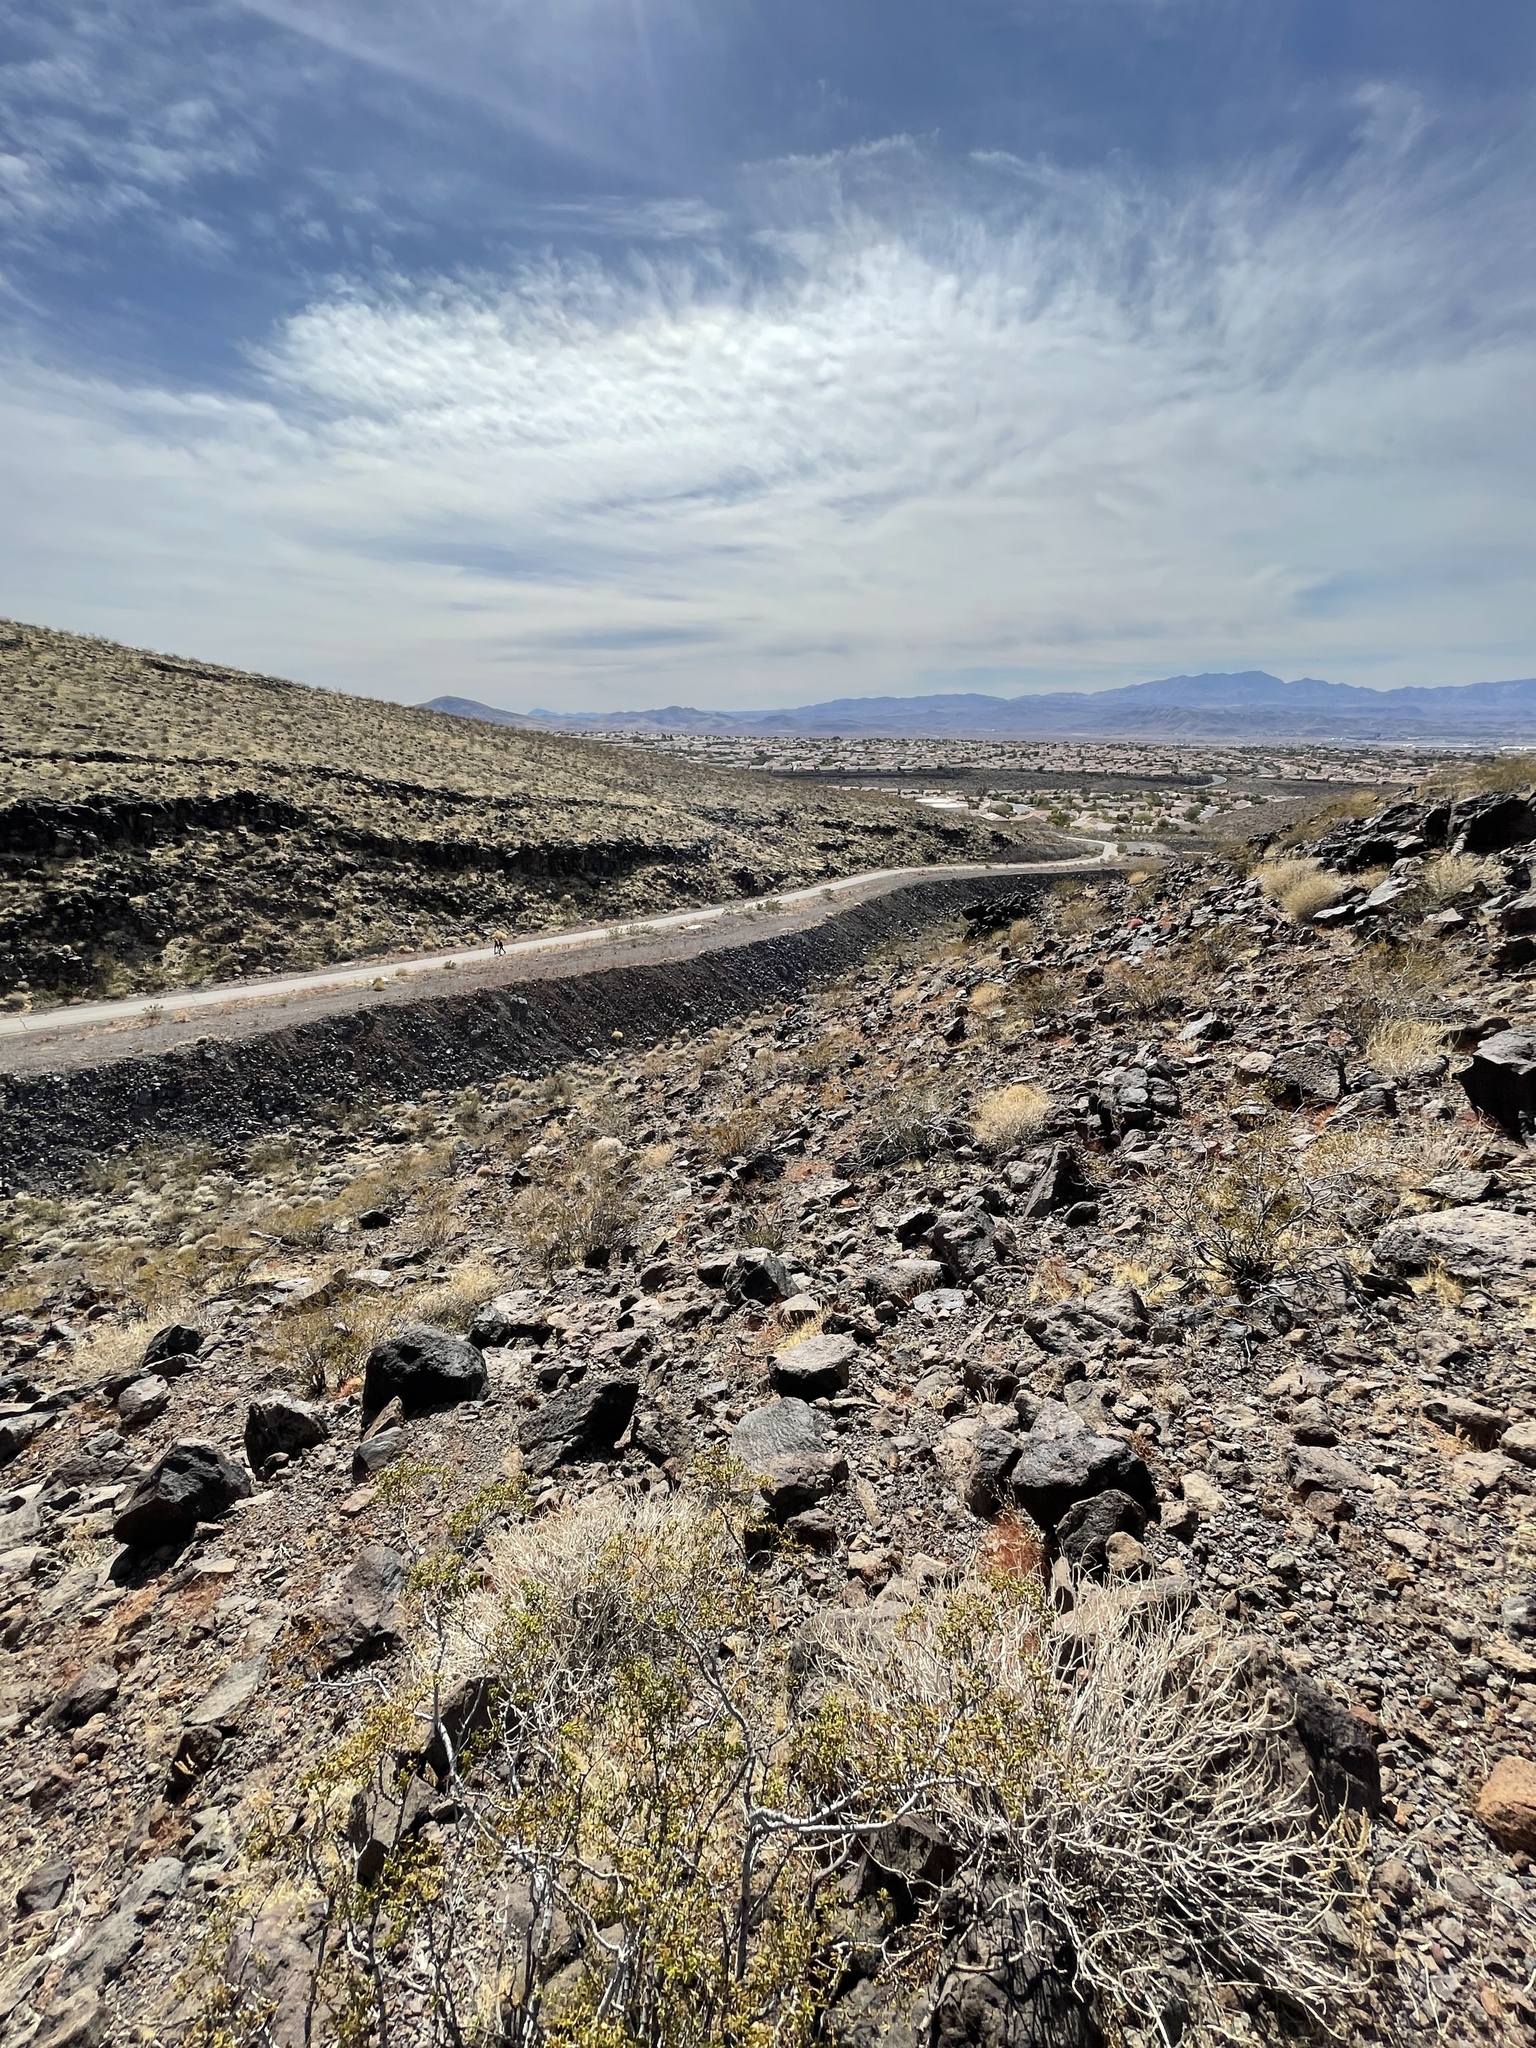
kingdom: Plantae
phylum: Tracheophyta
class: Magnoliopsida
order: Zygophyllales
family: Zygophyllaceae
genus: Larrea
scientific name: Larrea tridentata
